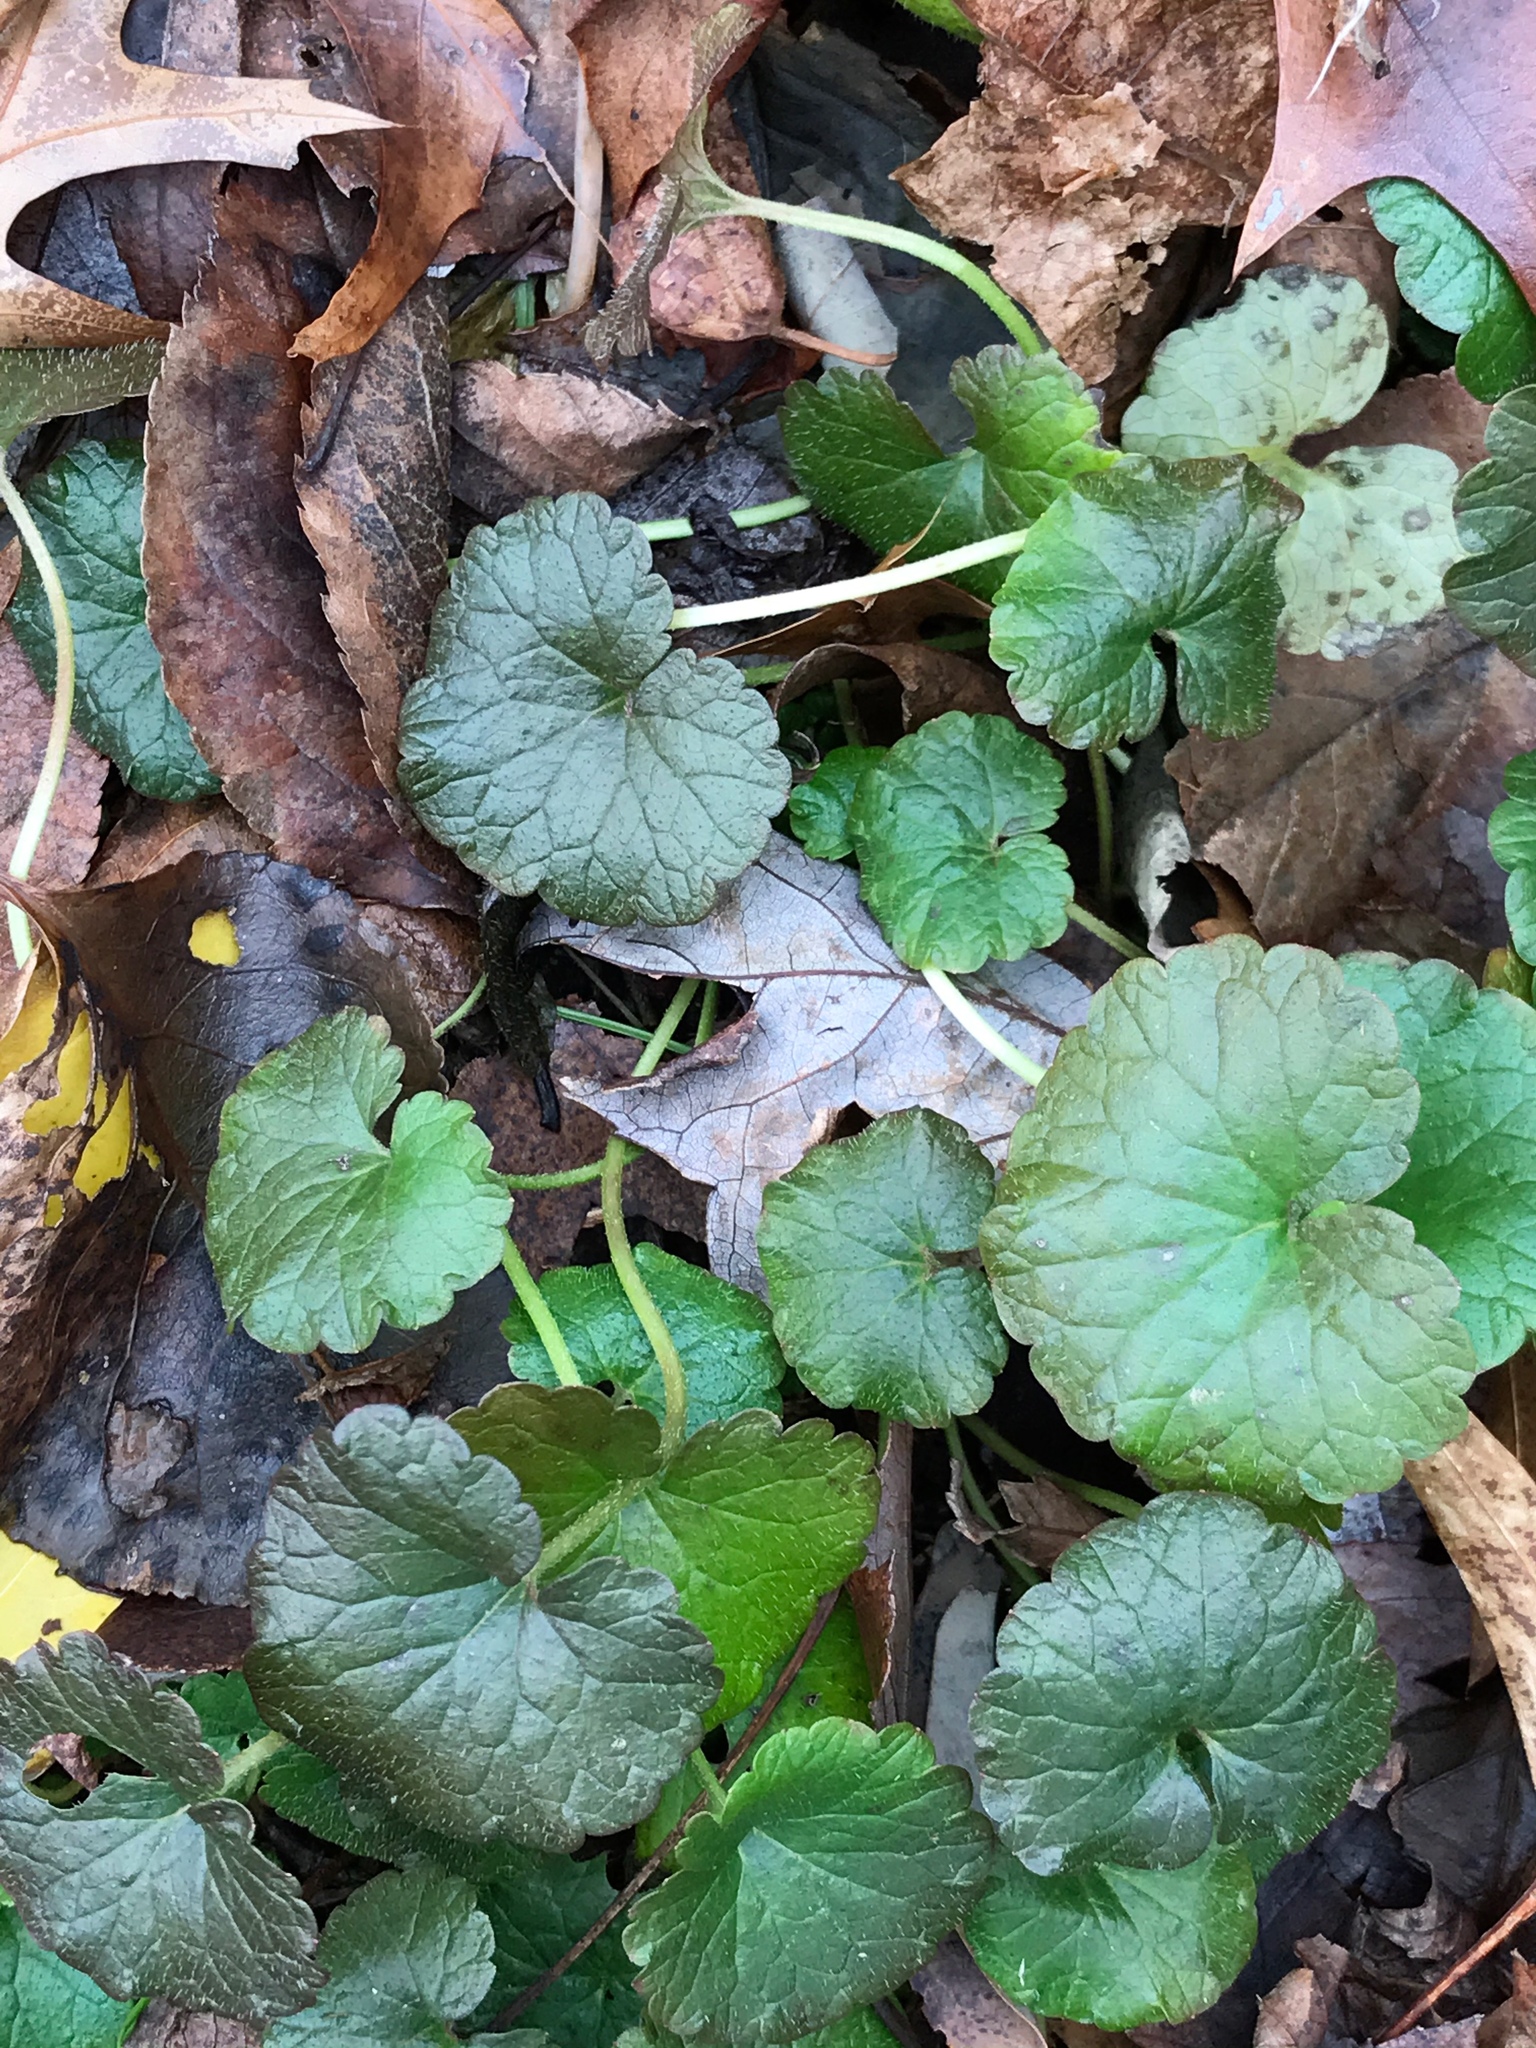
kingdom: Plantae
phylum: Tracheophyta
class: Magnoliopsida
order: Lamiales
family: Lamiaceae
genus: Glechoma
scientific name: Glechoma hederacea
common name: Ground ivy
